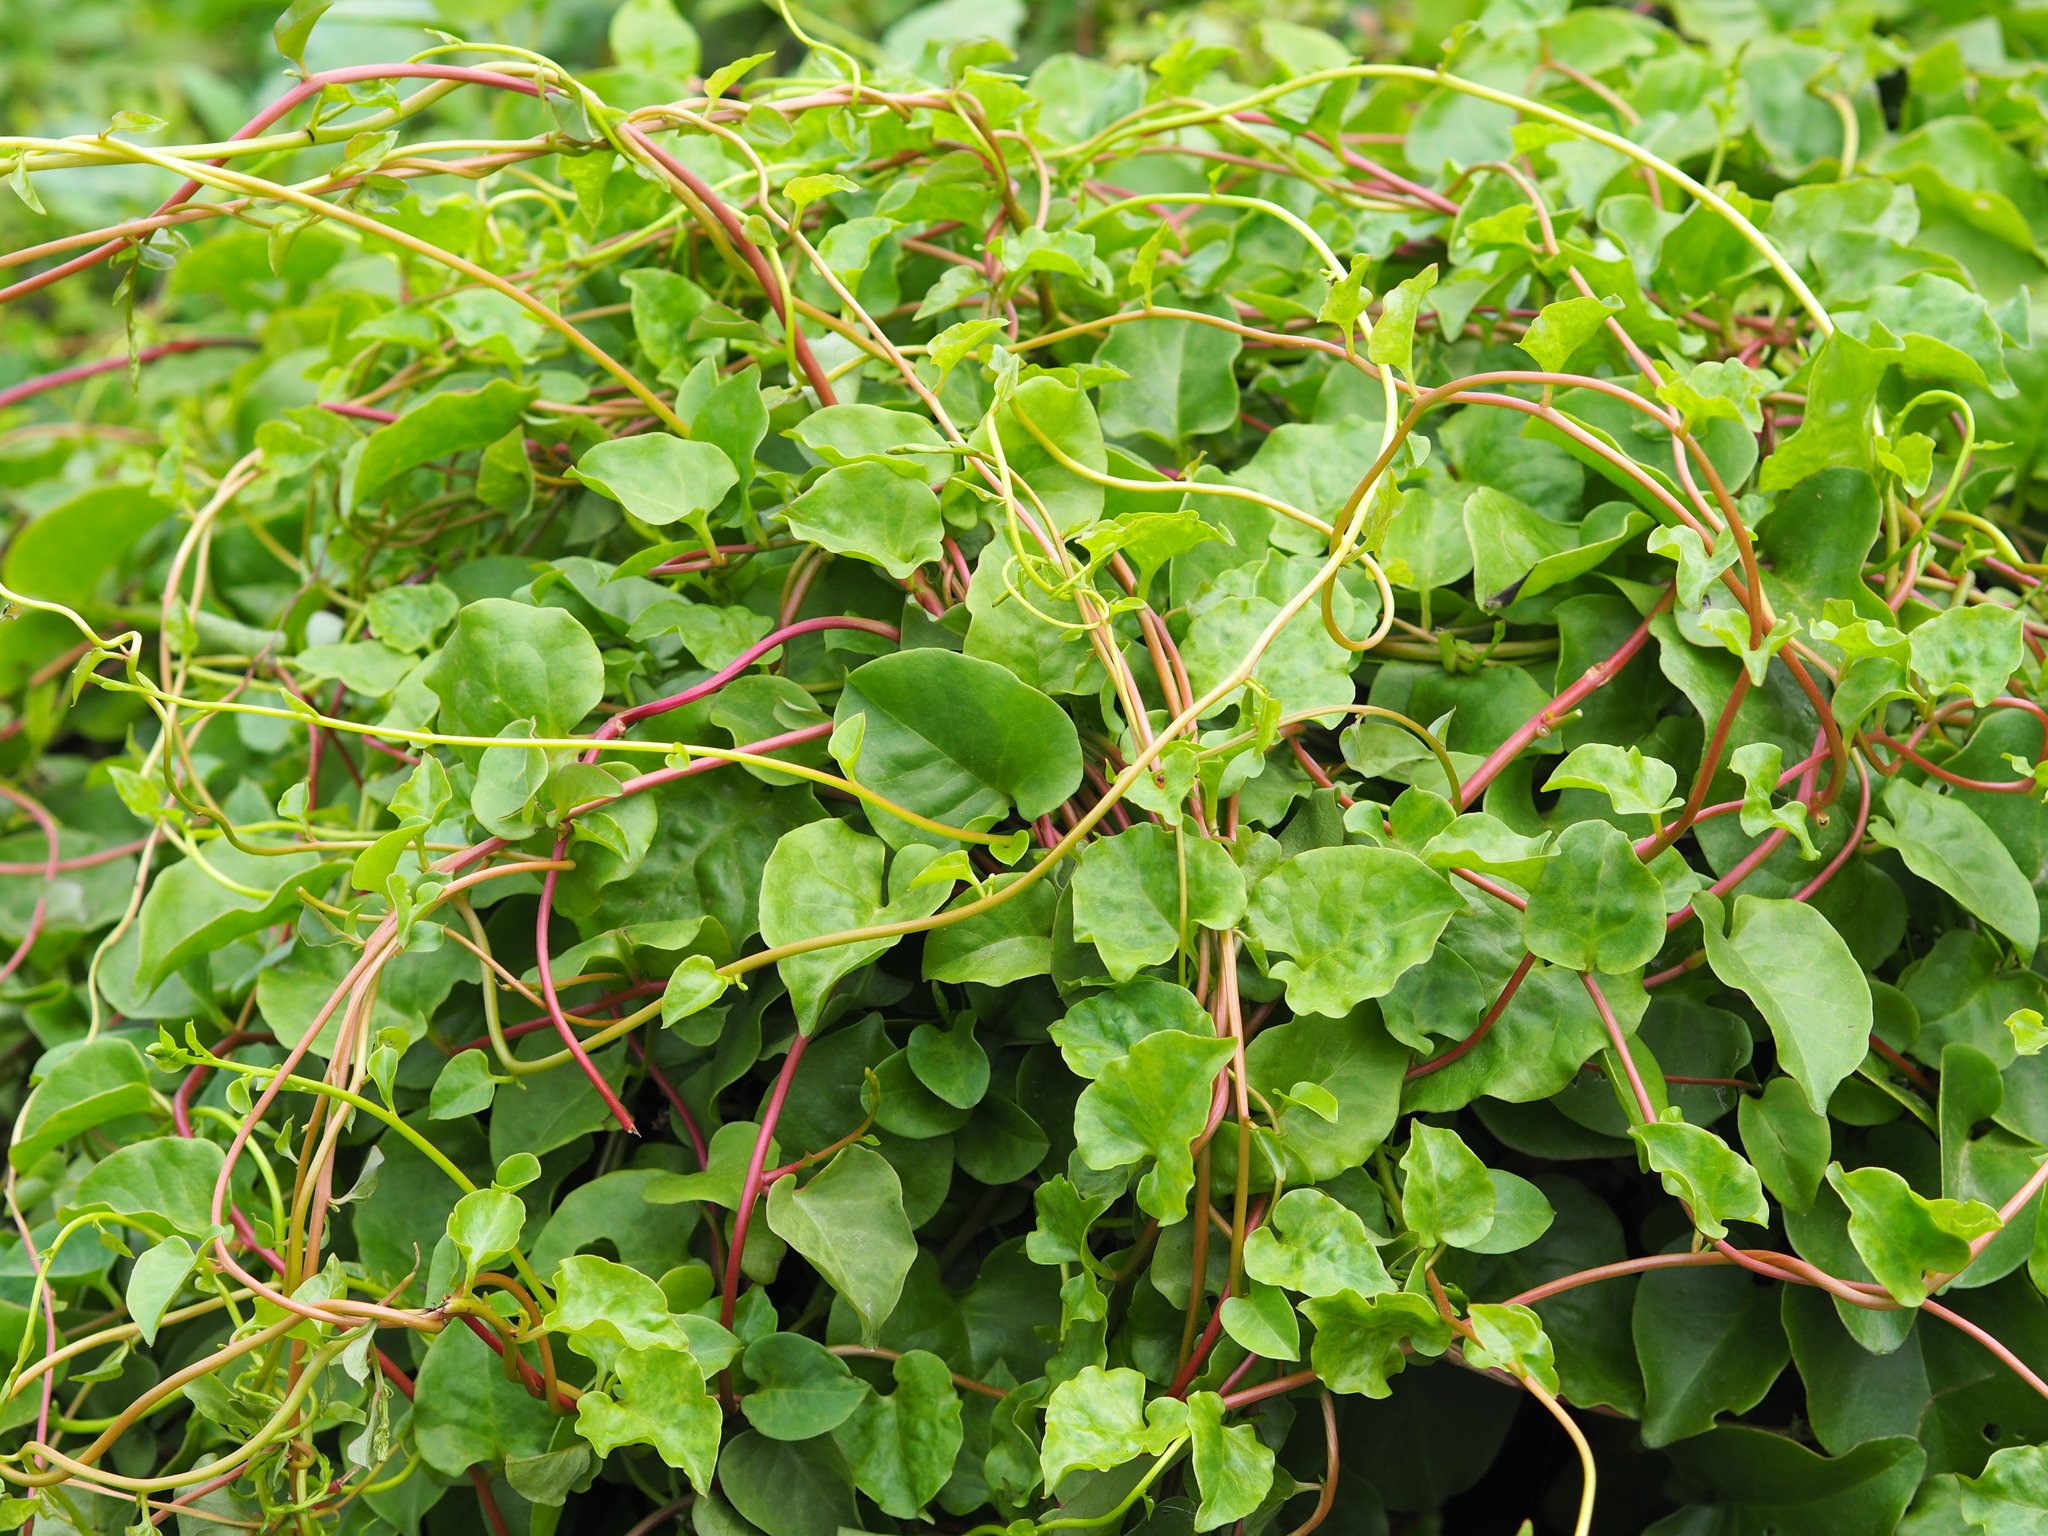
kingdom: Plantae
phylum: Tracheophyta
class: Magnoliopsida
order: Caryophyllales
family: Basellaceae
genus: Anredera
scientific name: Anredera cordifolia
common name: Heartleaf madeiravine
